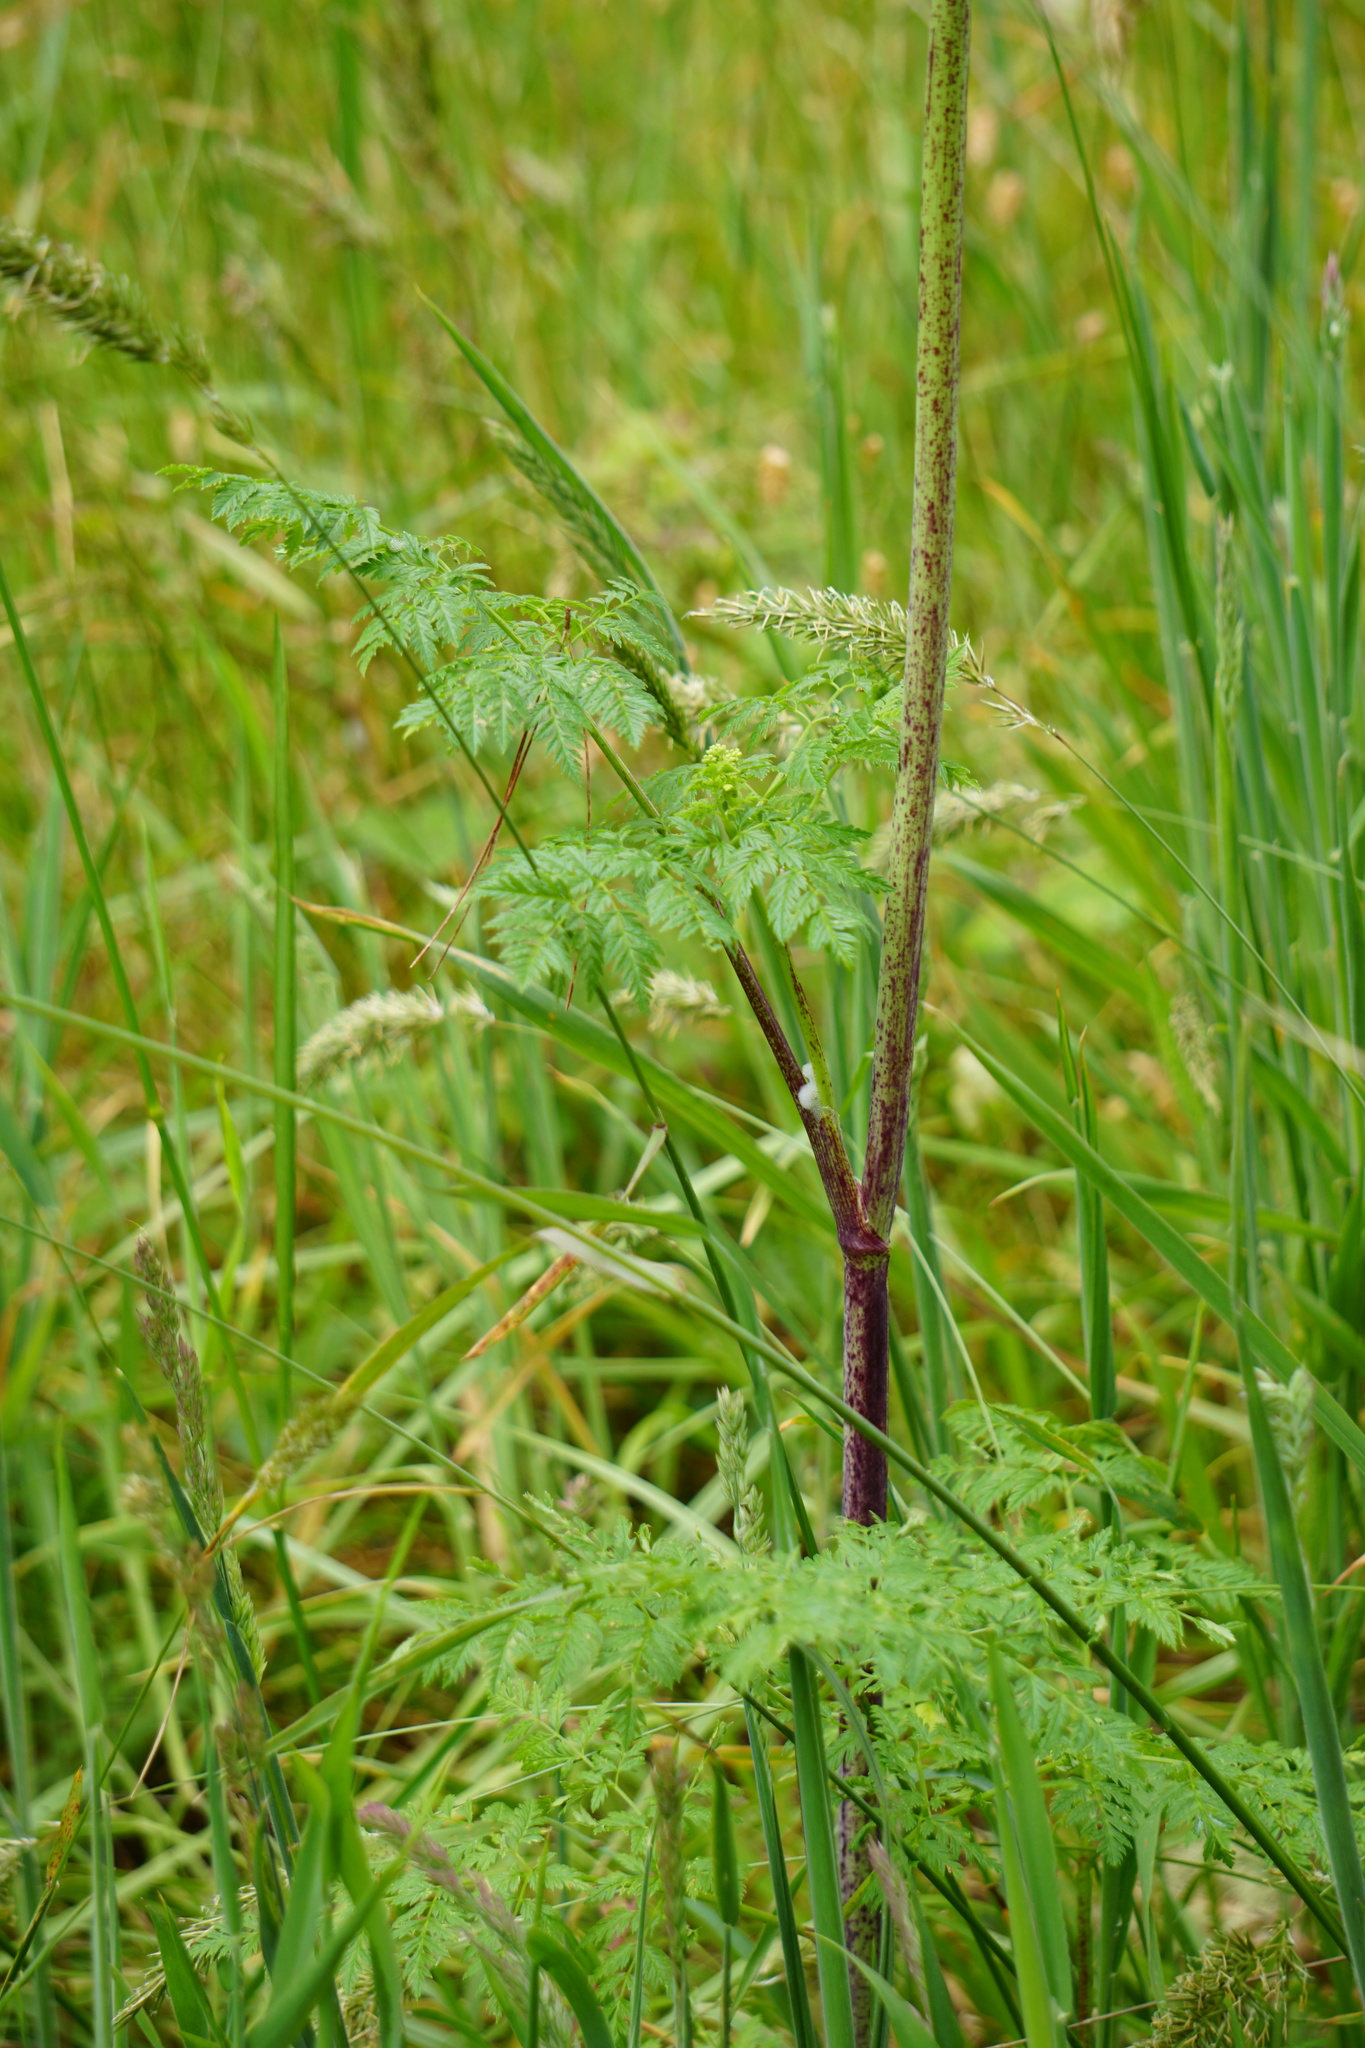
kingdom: Plantae
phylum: Tracheophyta
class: Magnoliopsida
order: Apiales
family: Apiaceae
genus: Conium
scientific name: Conium maculatum
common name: Hemlock
